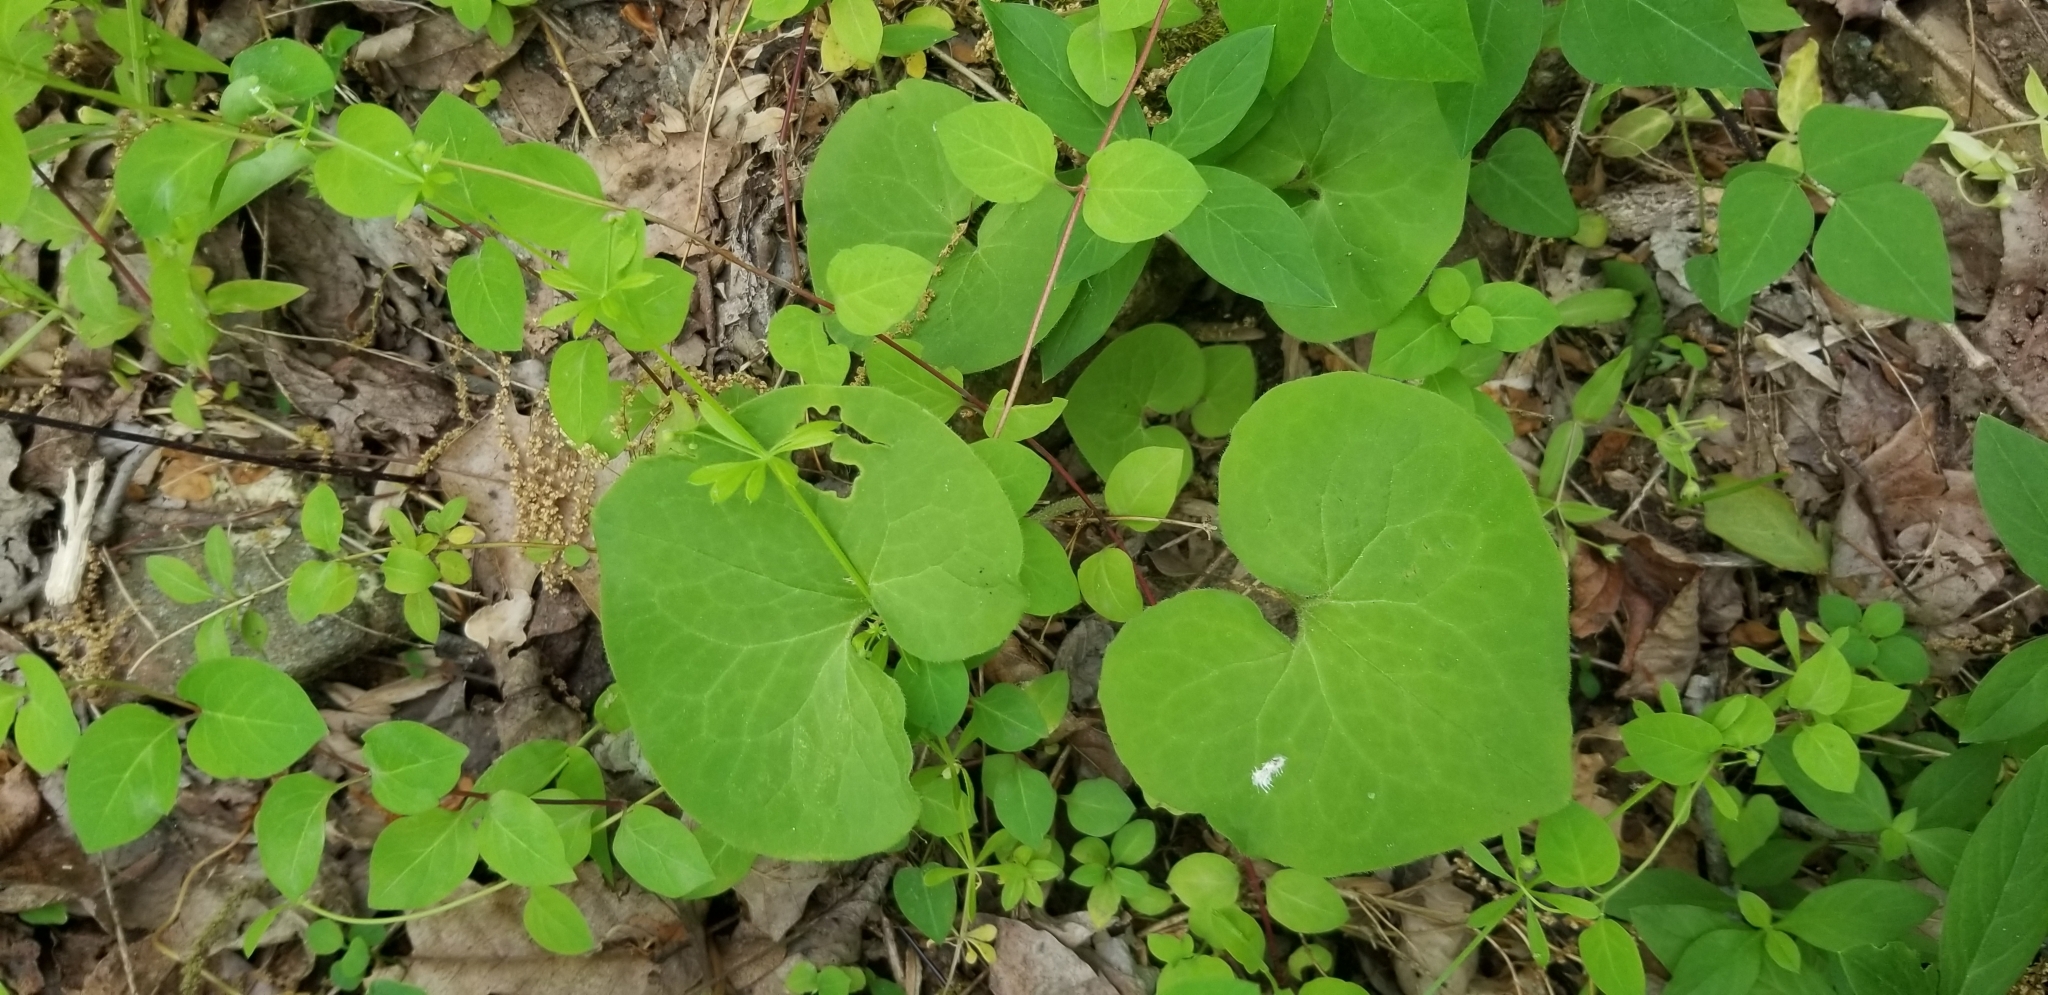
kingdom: Plantae
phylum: Tracheophyta
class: Magnoliopsida
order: Piperales
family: Aristolochiaceae
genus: Asarum
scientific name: Asarum canadense
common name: Wild ginger
